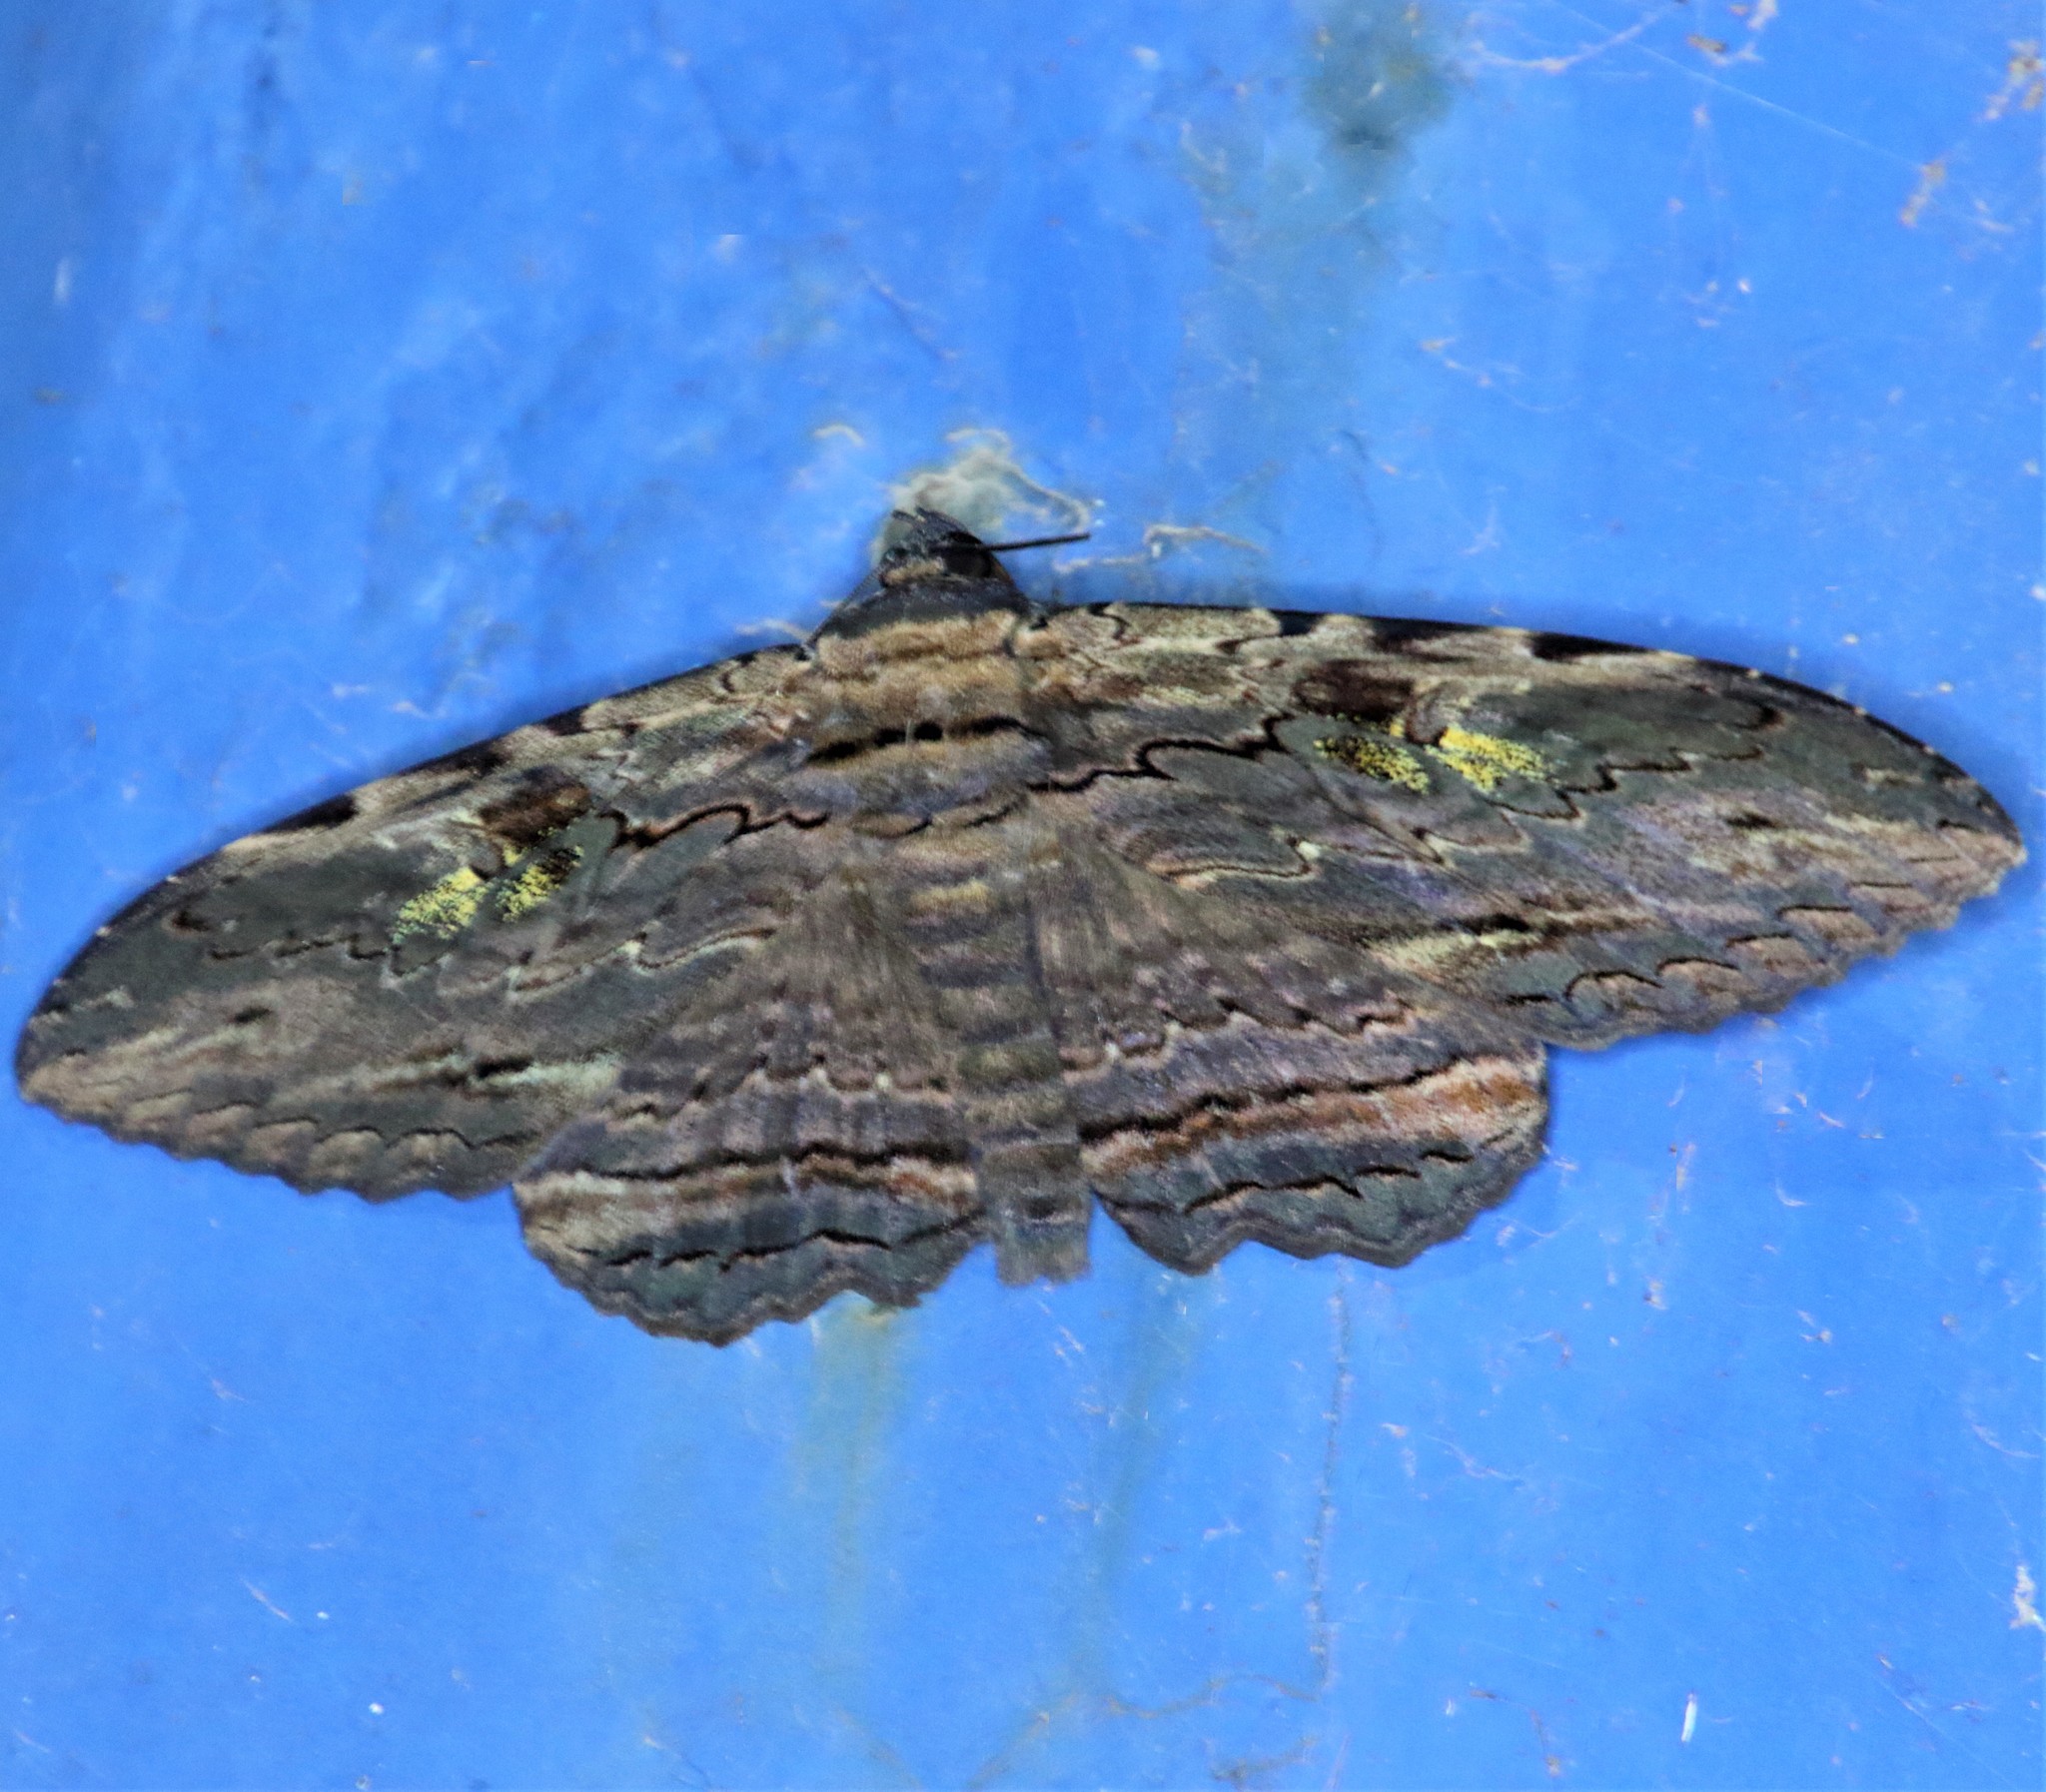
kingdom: Animalia
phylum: Arthropoda
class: Insecta
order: Lepidoptera
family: Erebidae
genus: Anisoneura
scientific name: Anisoneura aluco
